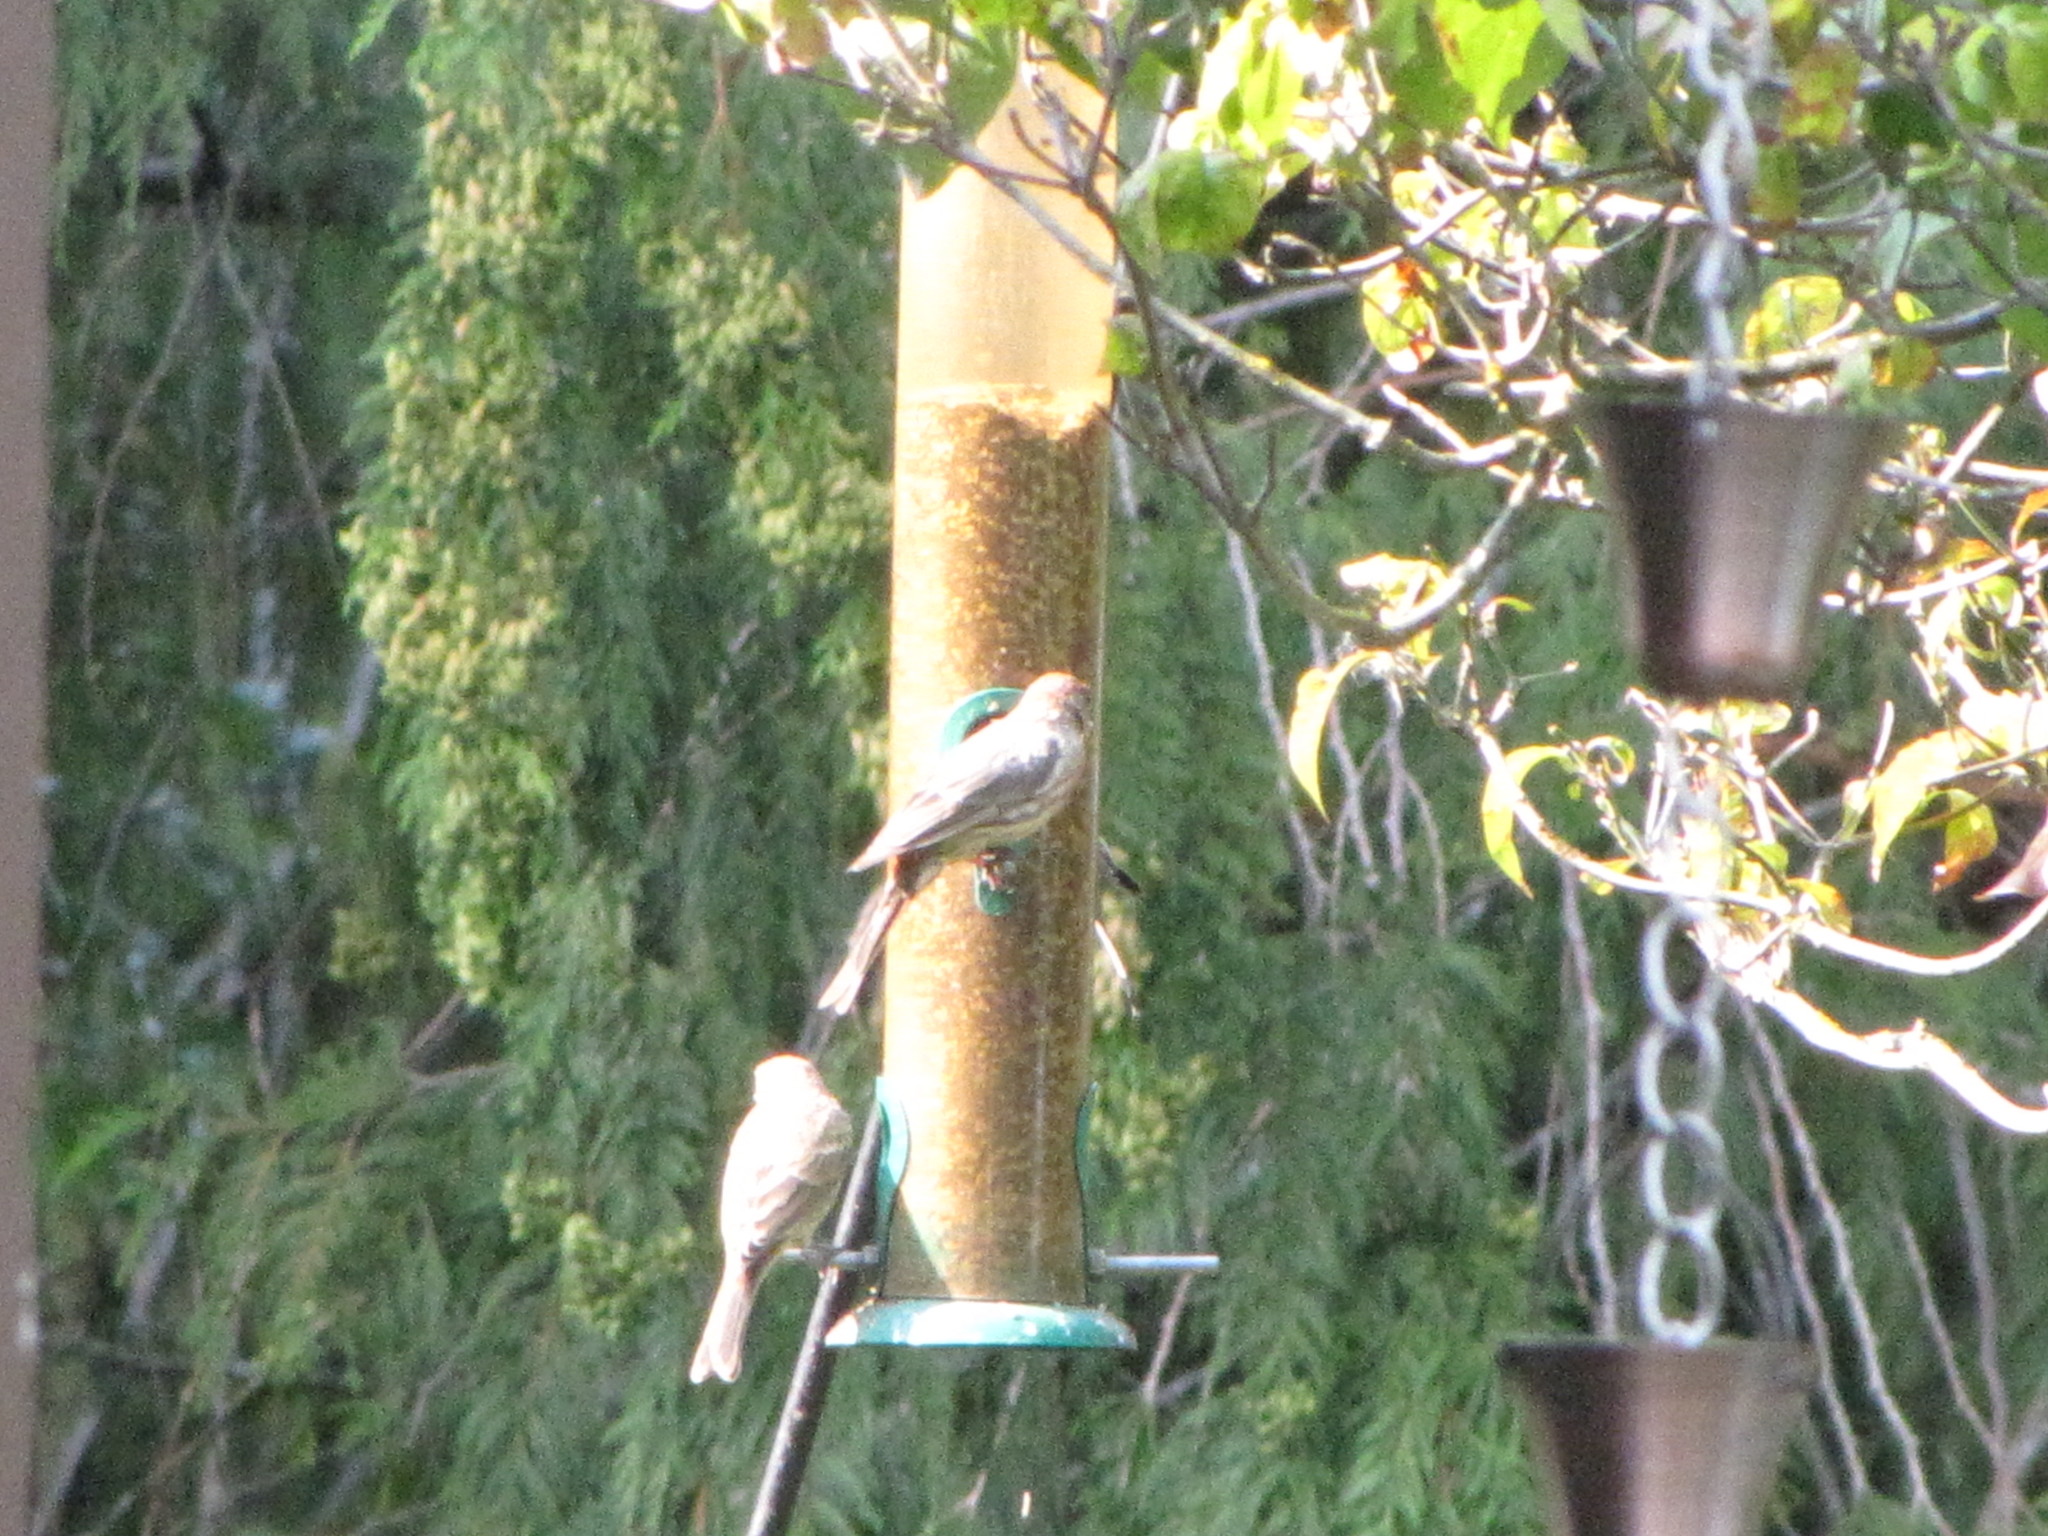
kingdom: Animalia
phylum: Chordata
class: Aves
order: Passeriformes
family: Fringillidae
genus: Haemorhous
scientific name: Haemorhous mexicanus
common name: House finch
